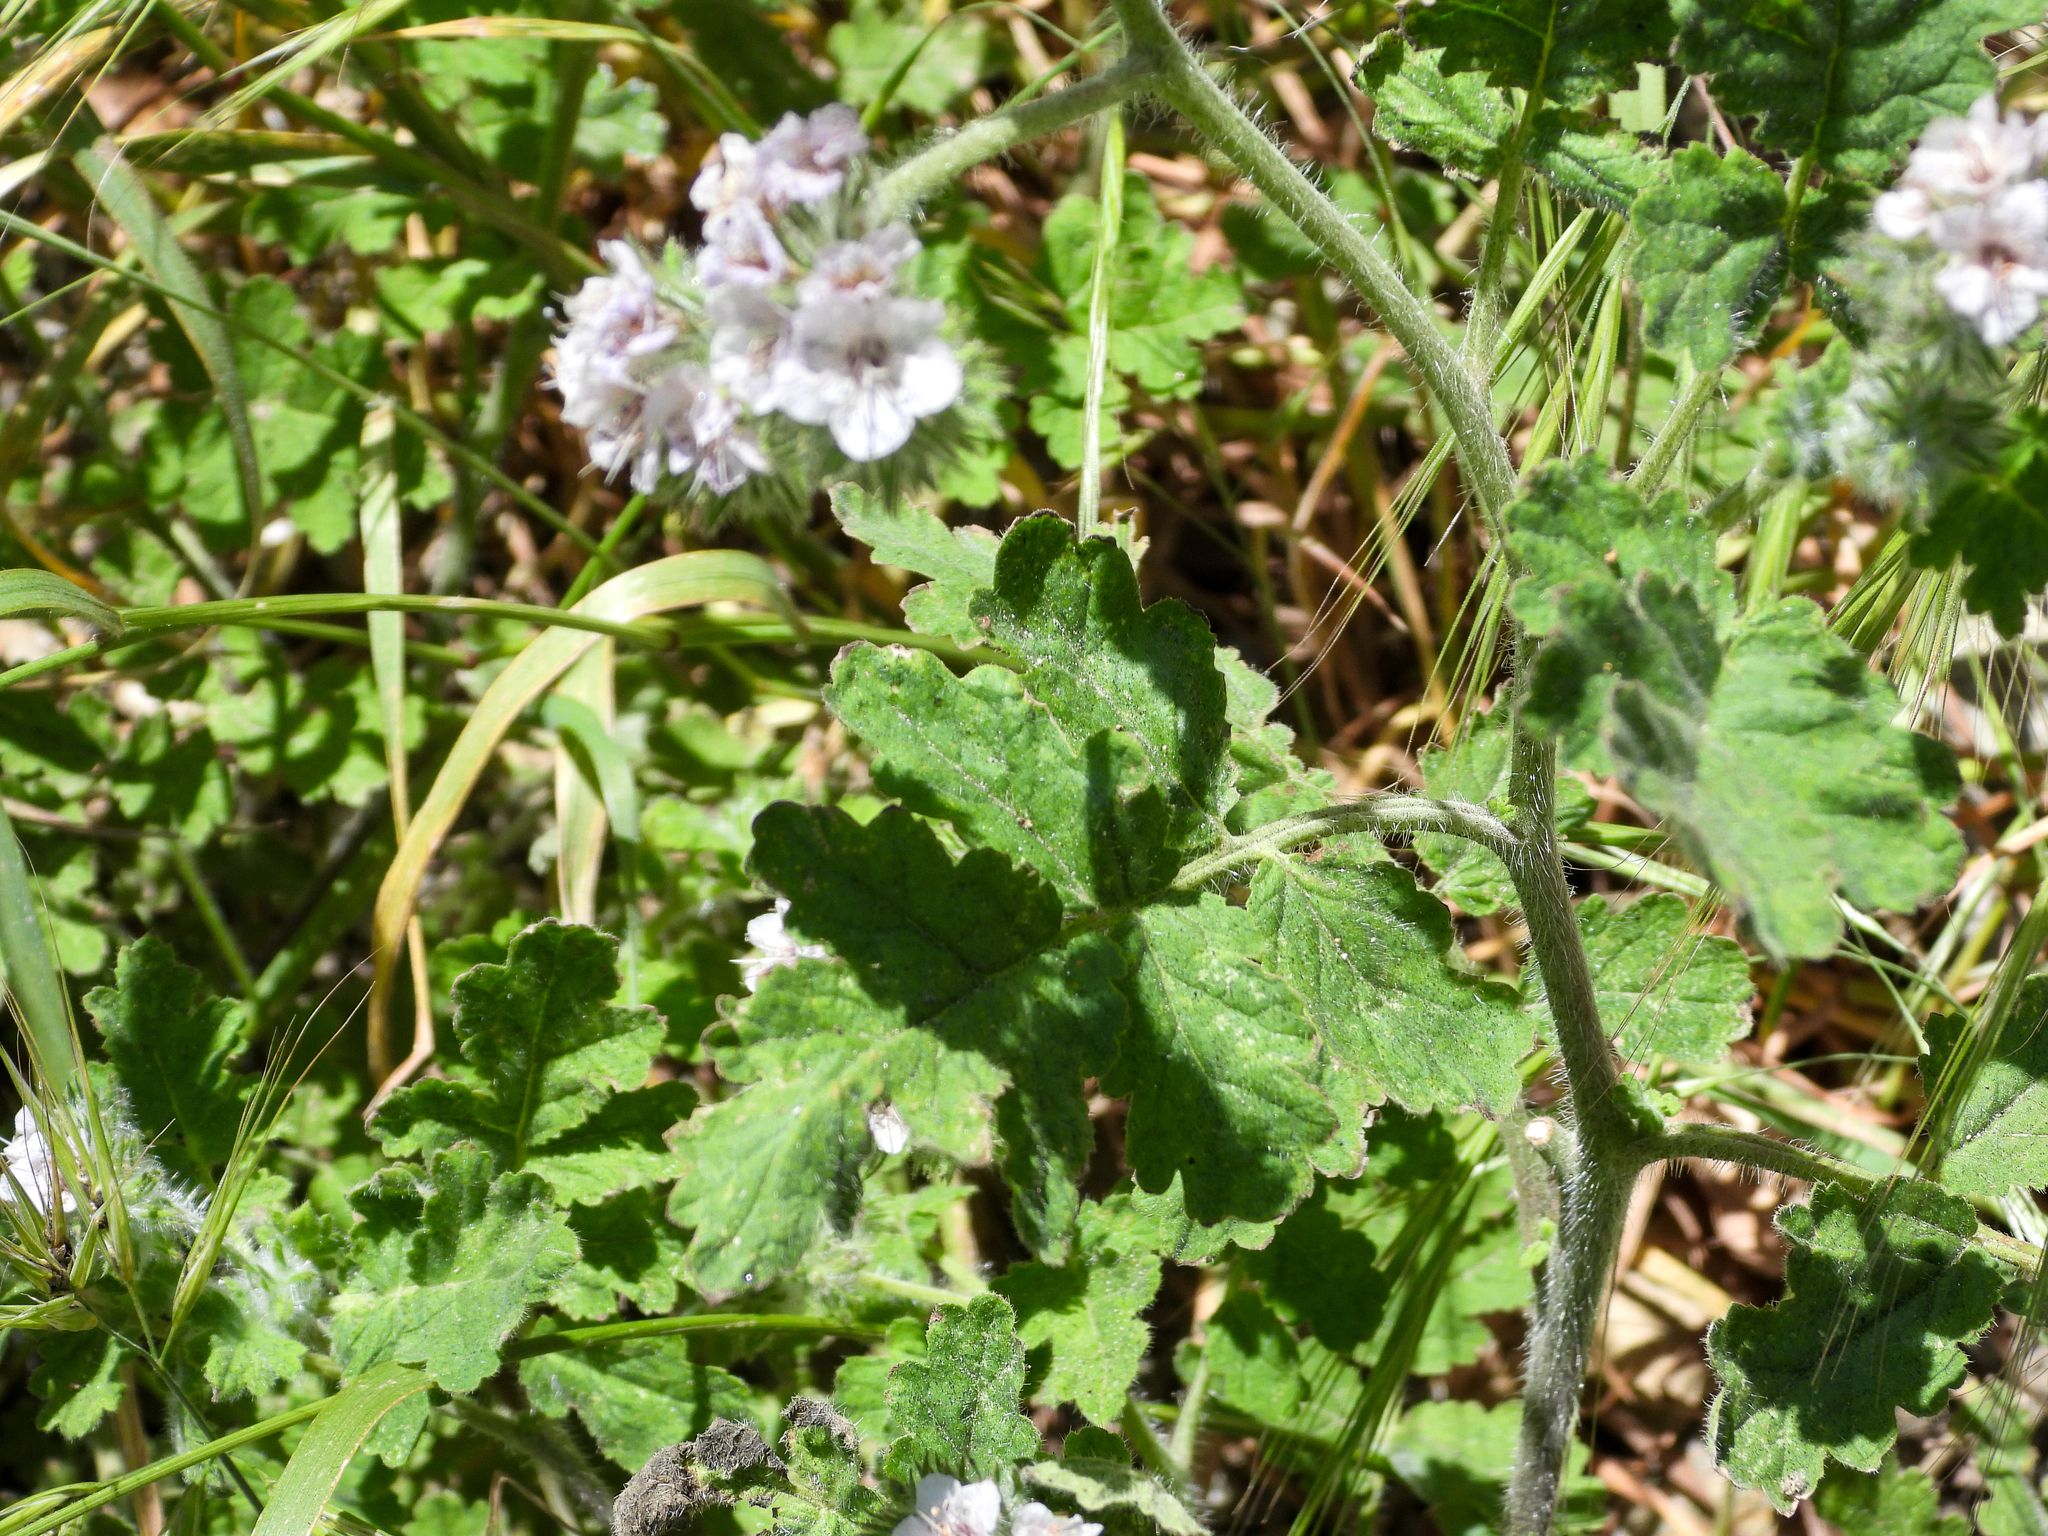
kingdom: Plantae
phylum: Tracheophyta
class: Magnoliopsida
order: Boraginales
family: Hydrophyllaceae
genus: Phacelia
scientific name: Phacelia cicutaria
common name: Caterpillar phacelia
